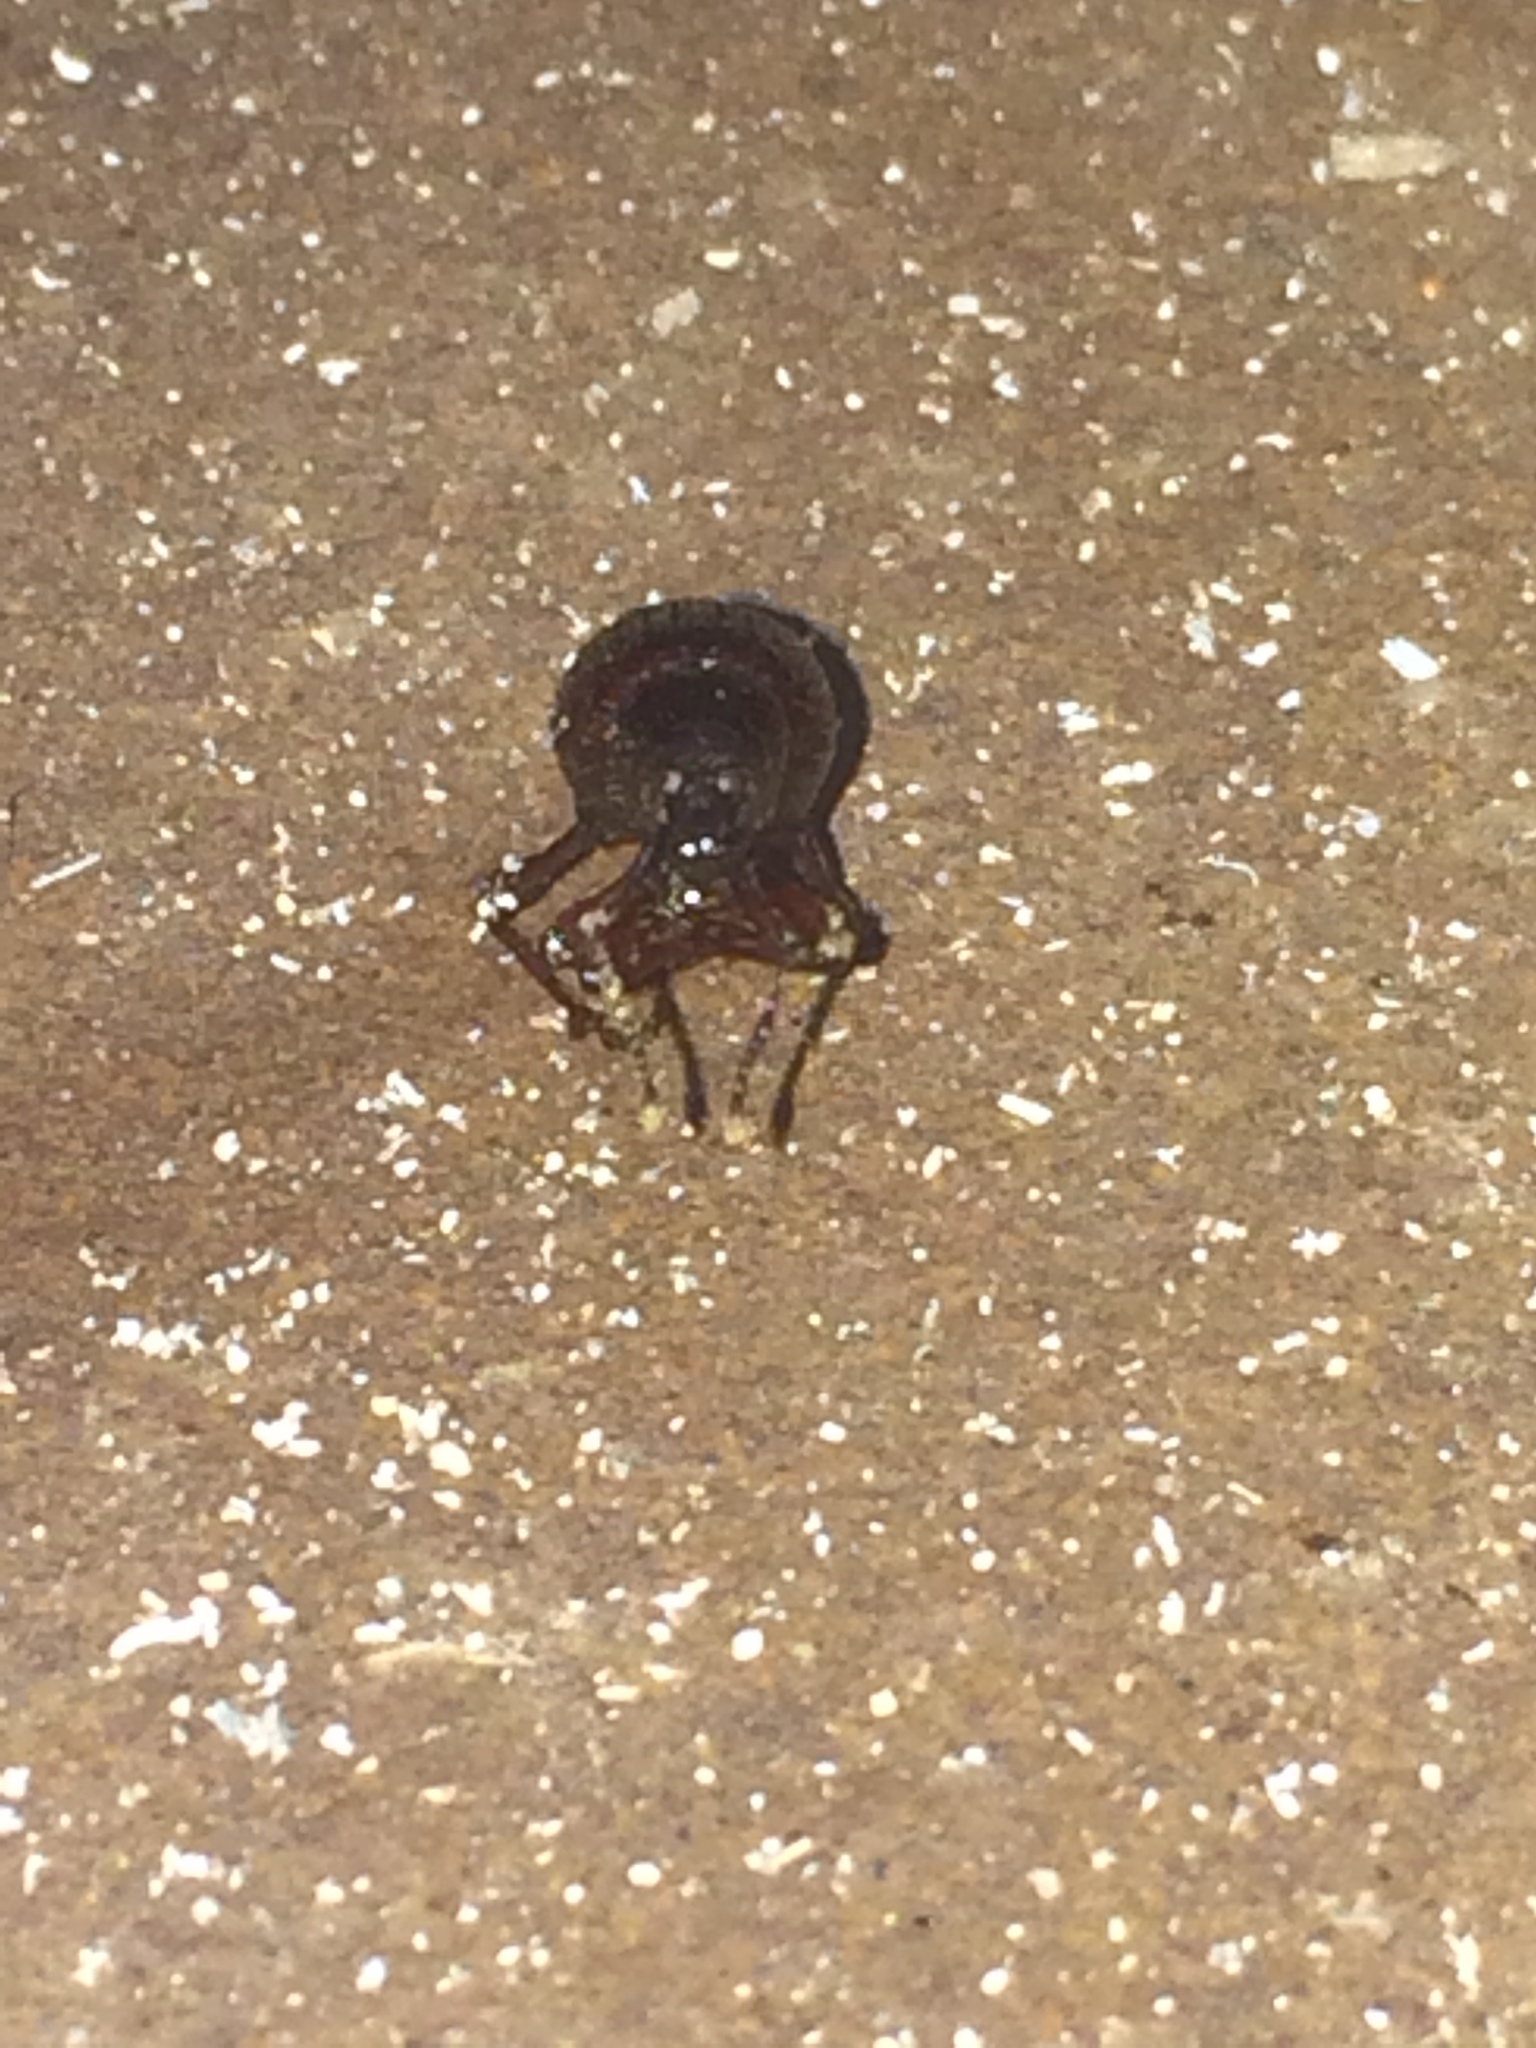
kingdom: Animalia
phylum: Arthropoda
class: Insecta
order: Coleoptera
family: Curculionidae
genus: Otiorhynchus
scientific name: Otiorhynchus cribricollis
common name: Weevil
